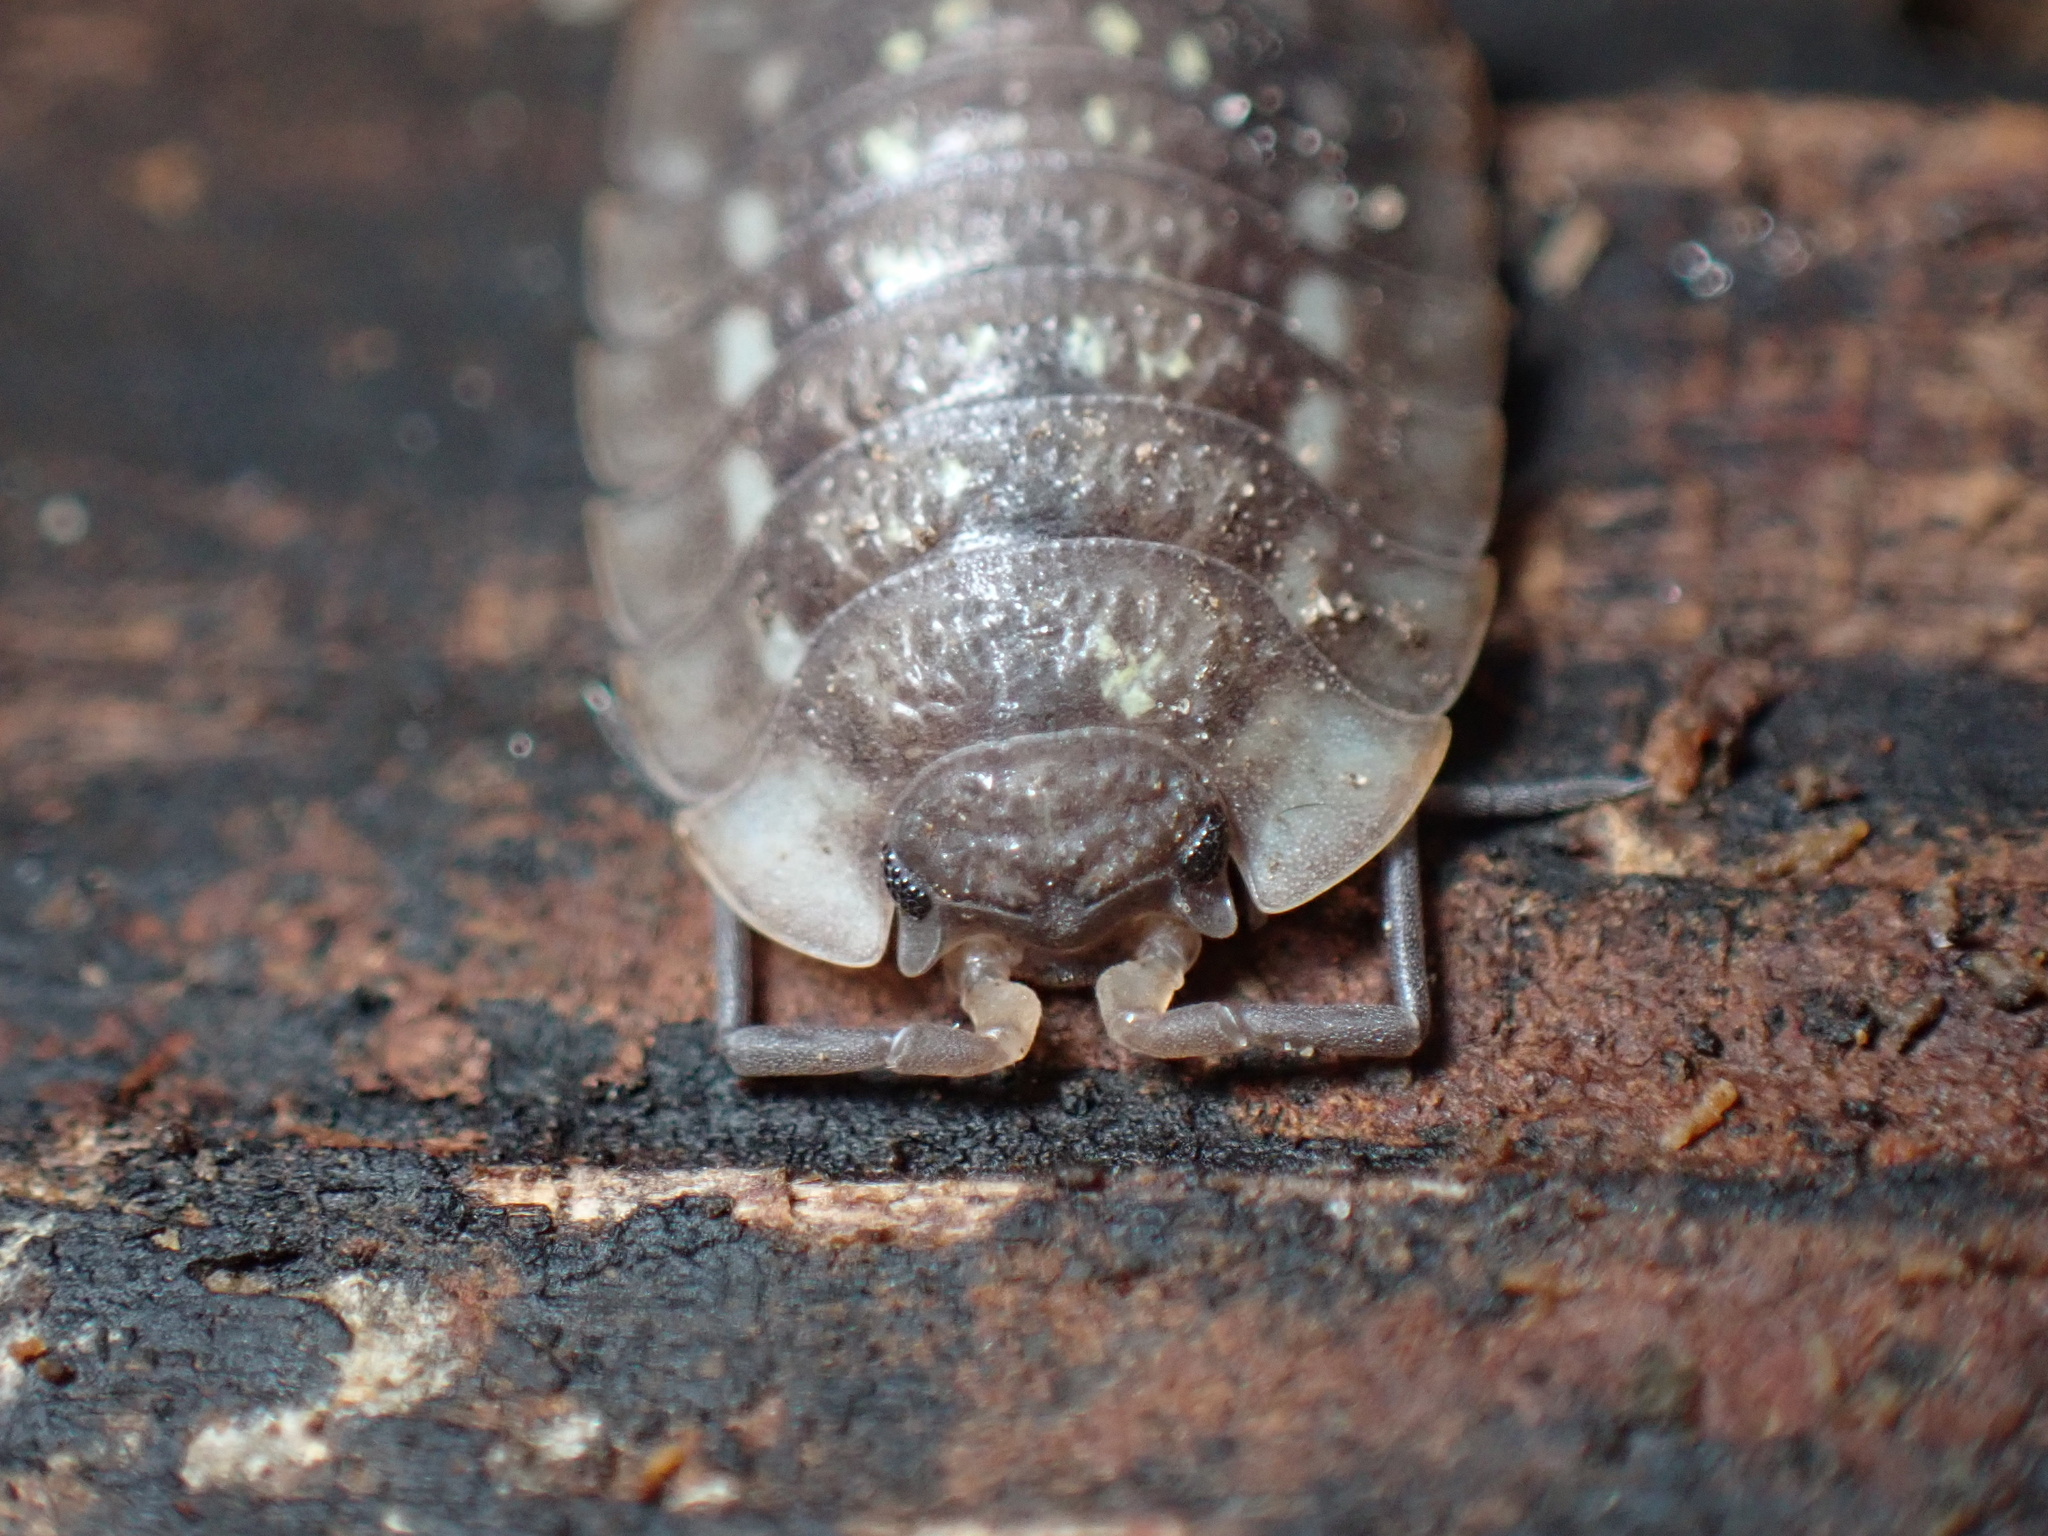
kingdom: Animalia
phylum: Arthropoda
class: Malacostraca
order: Isopoda
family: Oniscidae
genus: Oniscus
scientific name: Oniscus asellus
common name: Common shiny woodlouse
